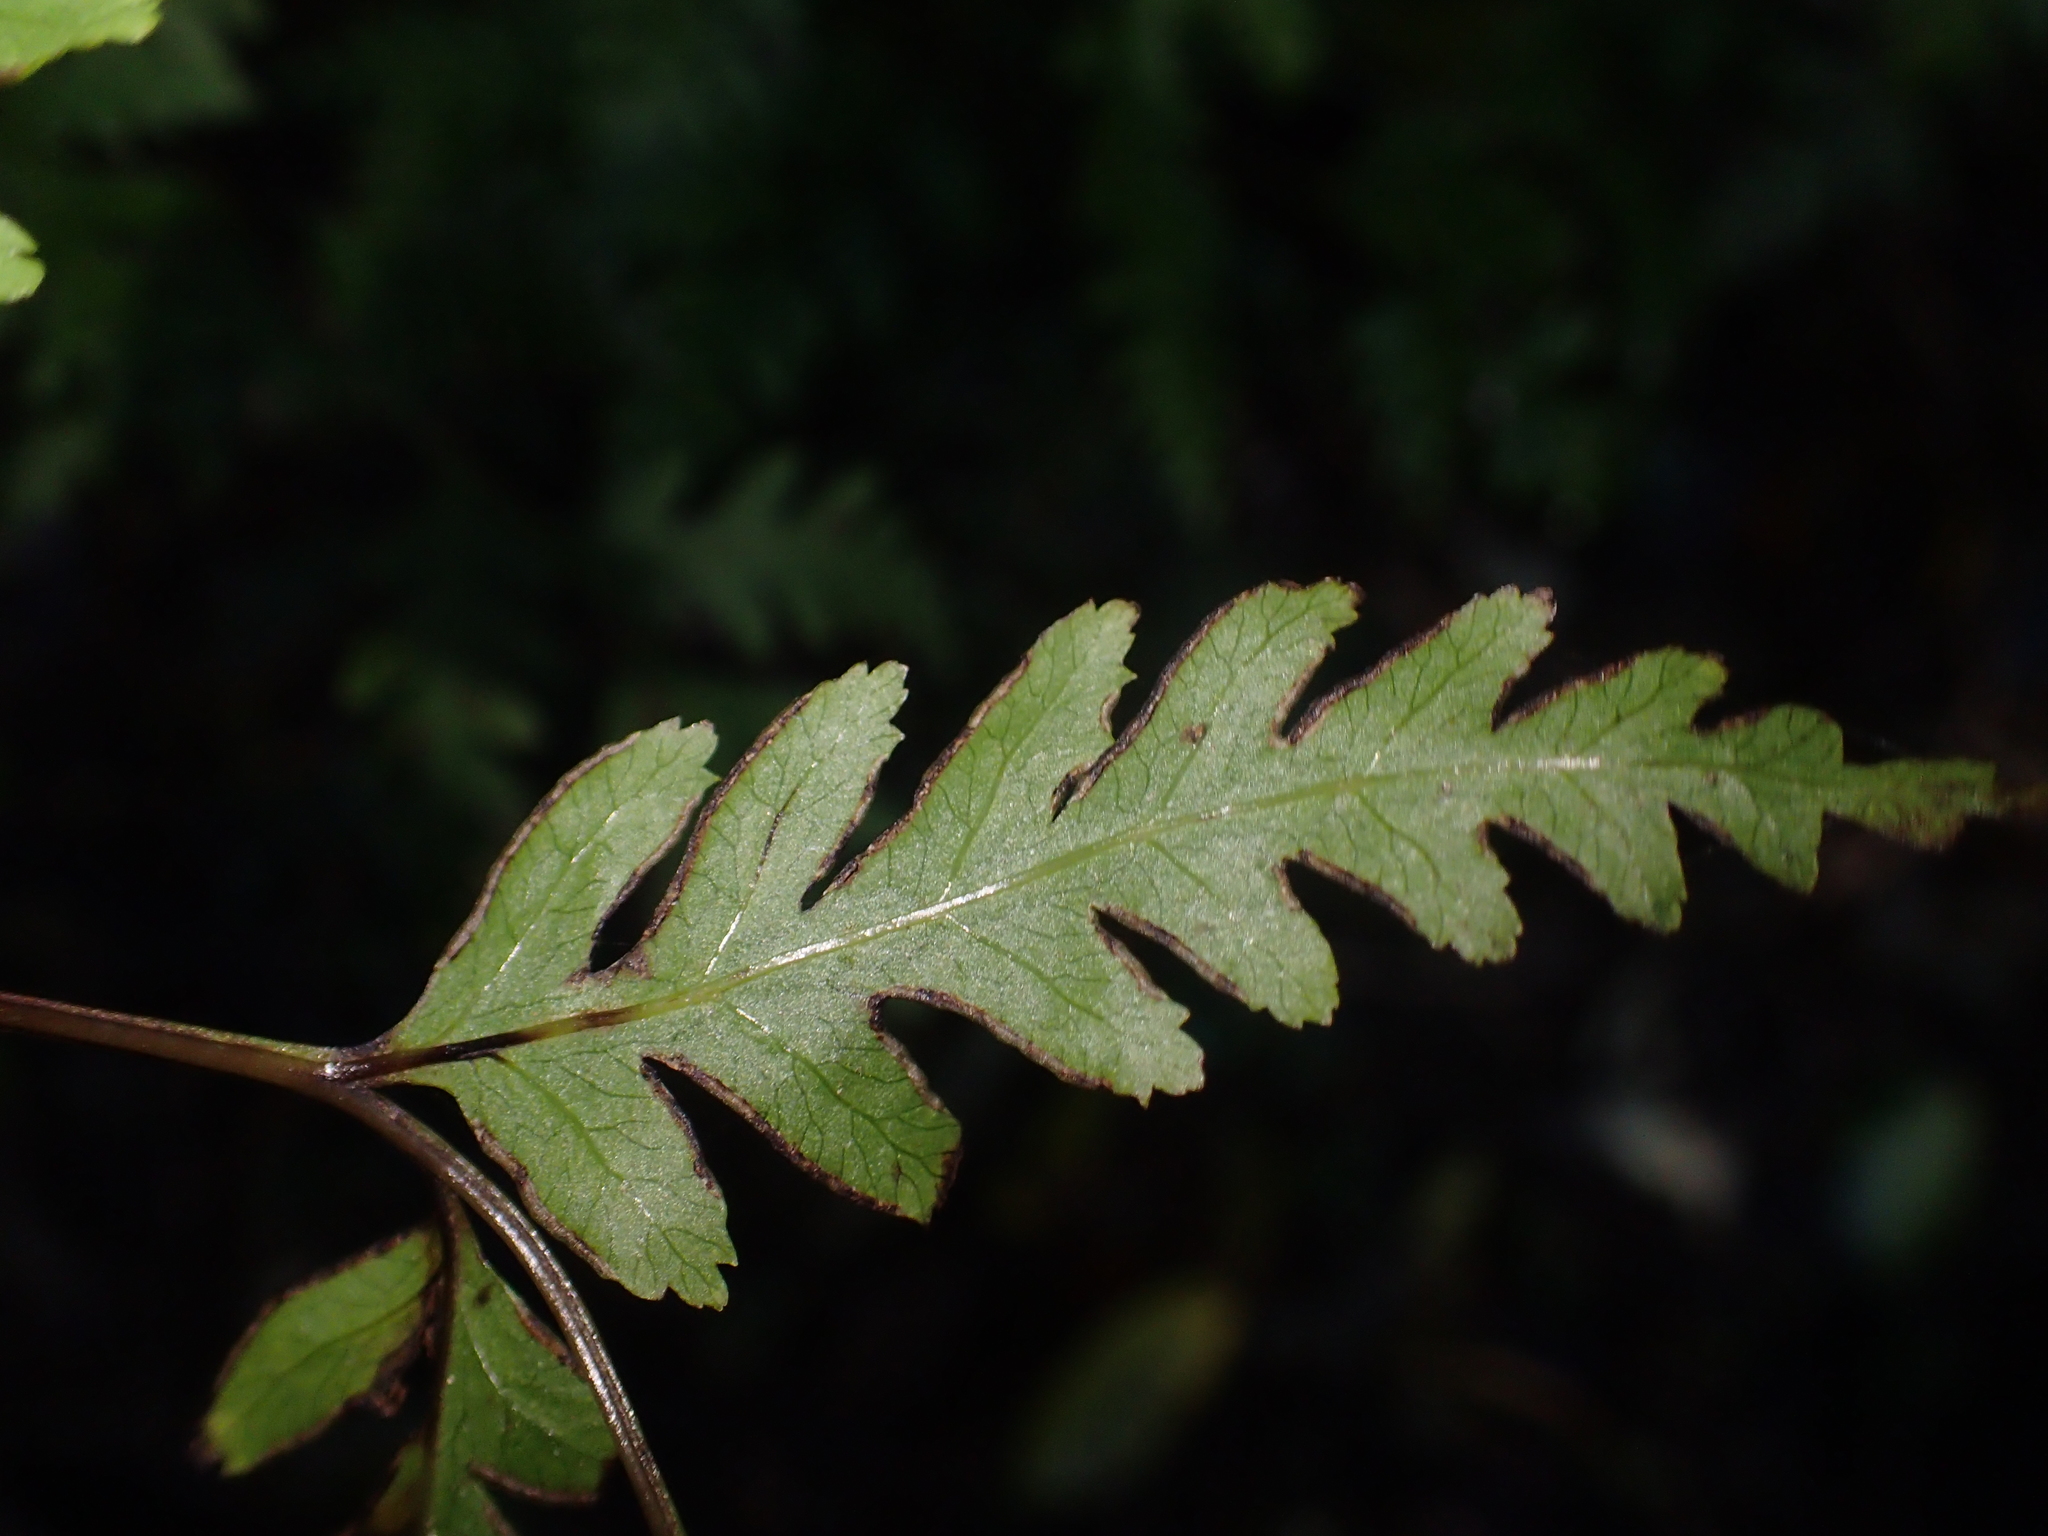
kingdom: Plantae
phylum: Tracheophyta
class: Polypodiopsida
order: Polypodiales
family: Pteridaceae
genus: Pteris
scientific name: Pteris macilenta
